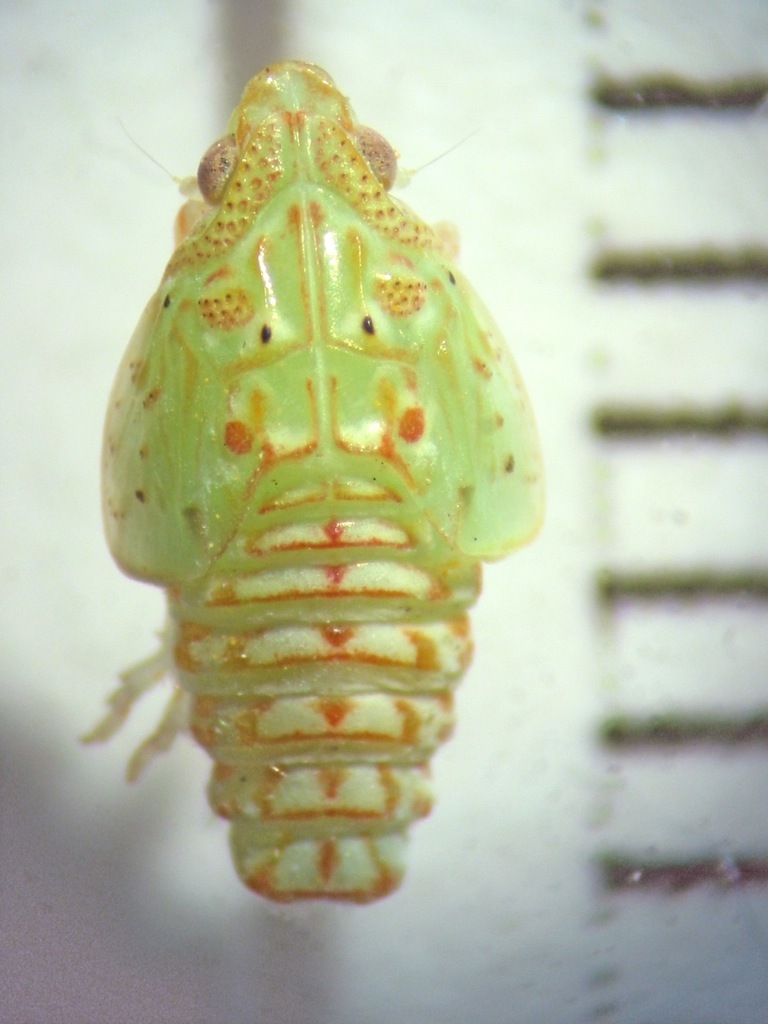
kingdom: Animalia
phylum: Arthropoda
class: Insecta
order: Hemiptera
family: Flatidae
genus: Siphanta
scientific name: Siphanta acuta
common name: Torpedo bug
